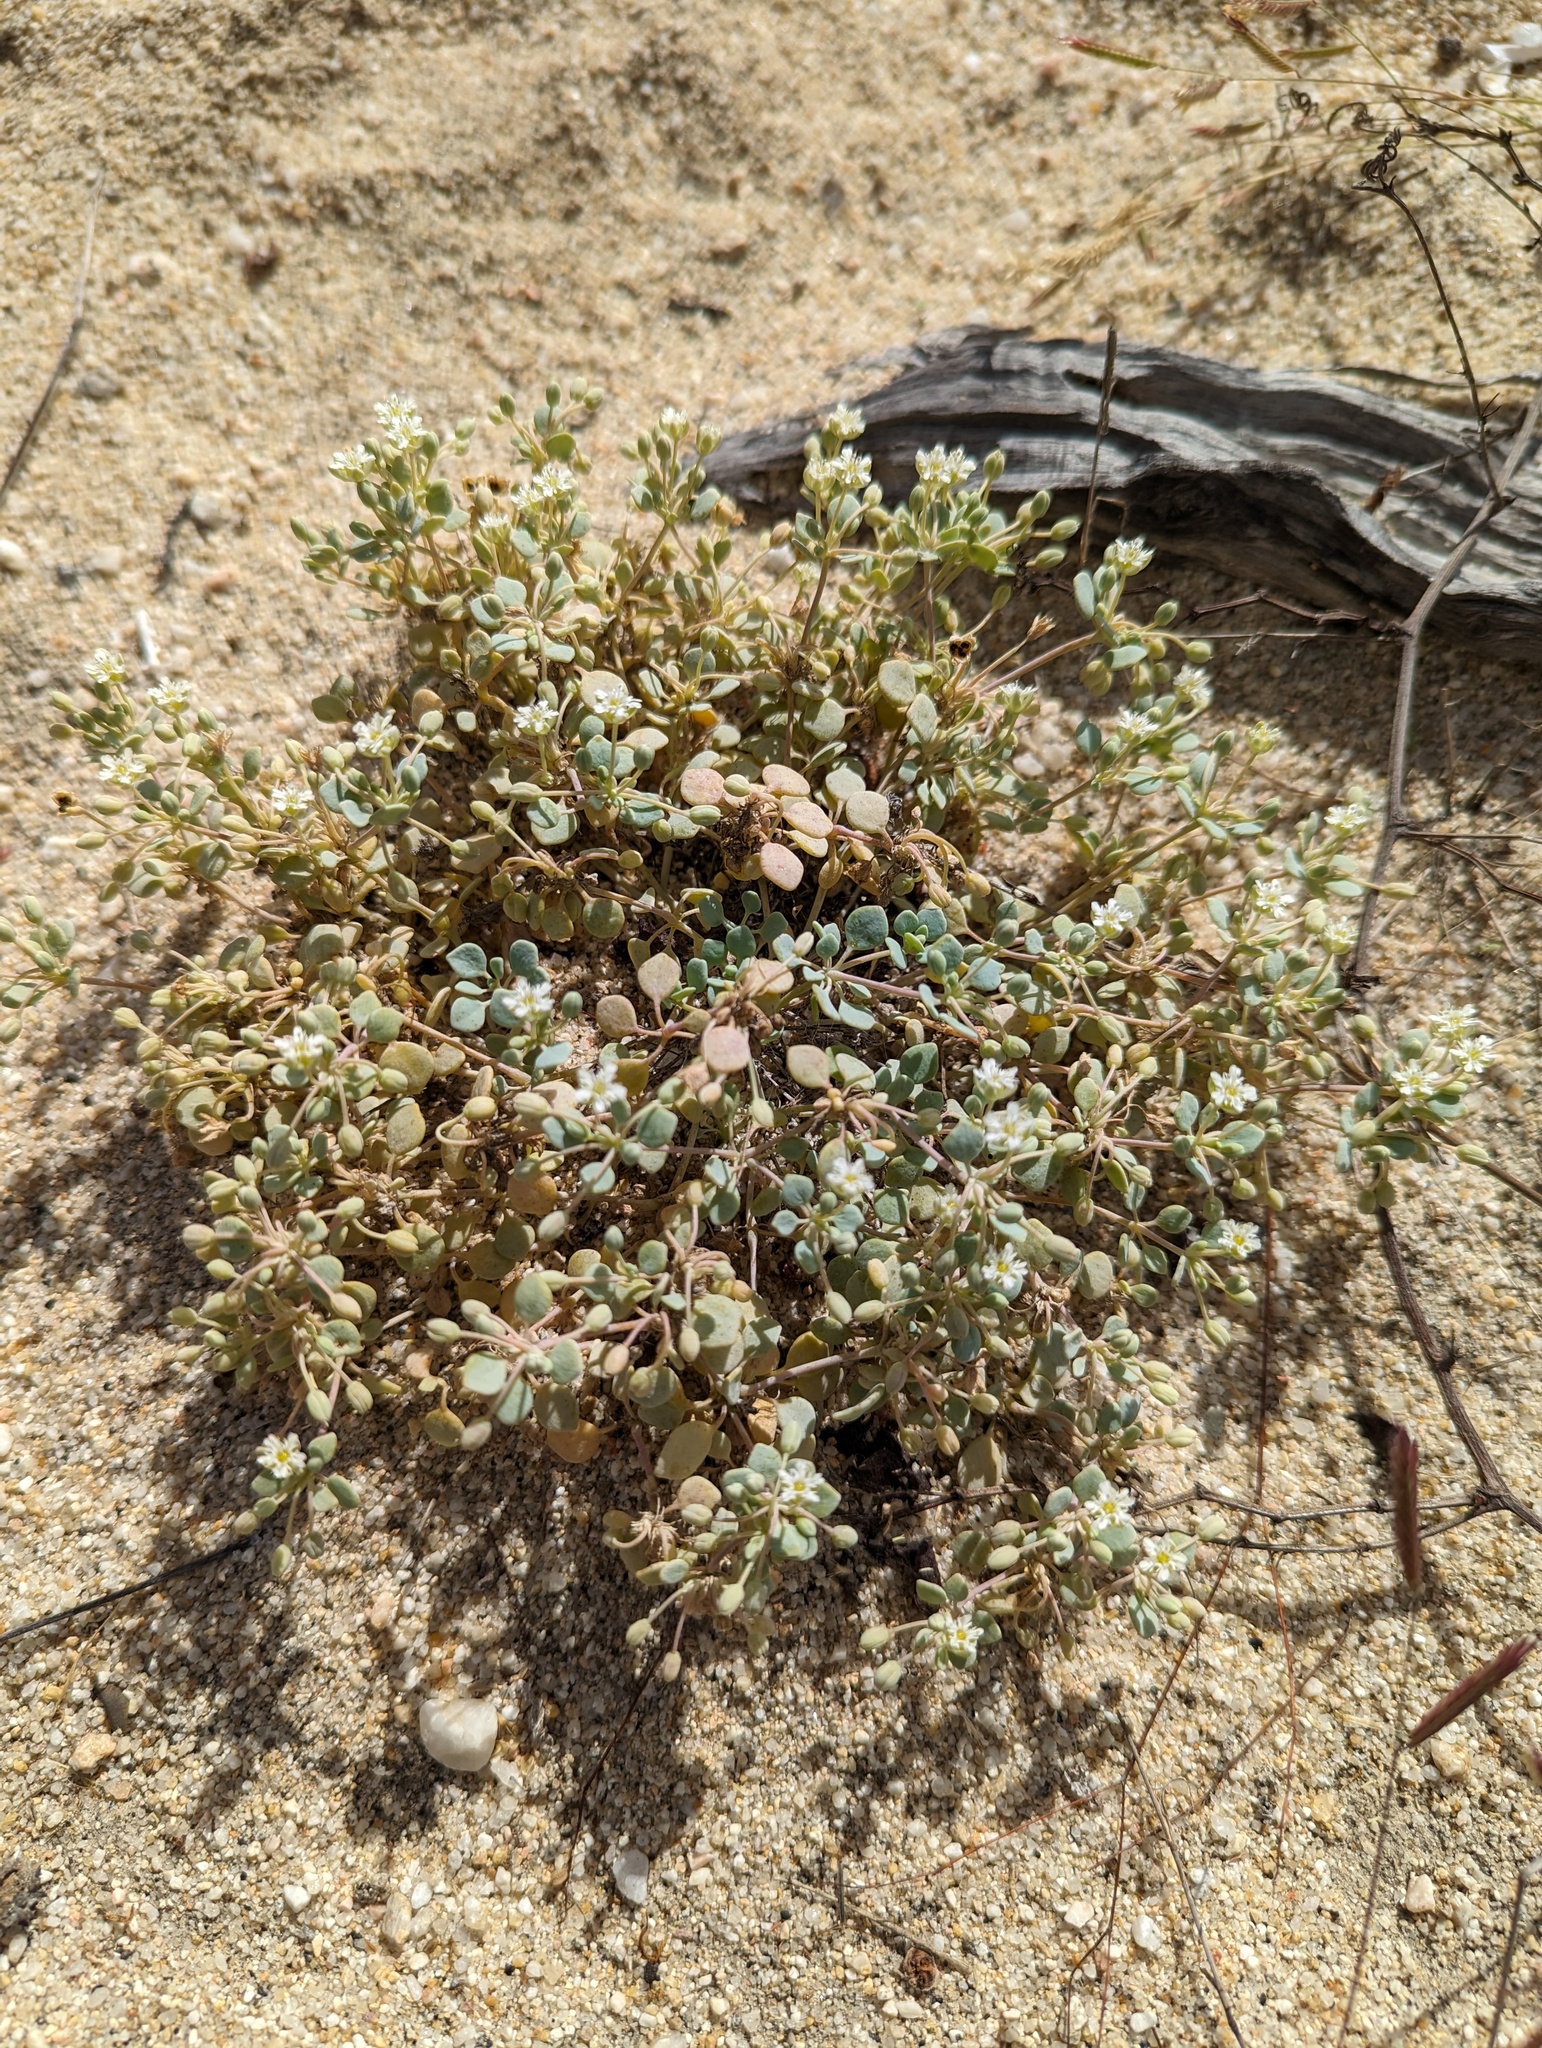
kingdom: Plantae
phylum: Tracheophyta
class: Magnoliopsida
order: Caryophyllales
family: Caryophyllaceae
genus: Drymaria
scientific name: Drymaria holosteoides
